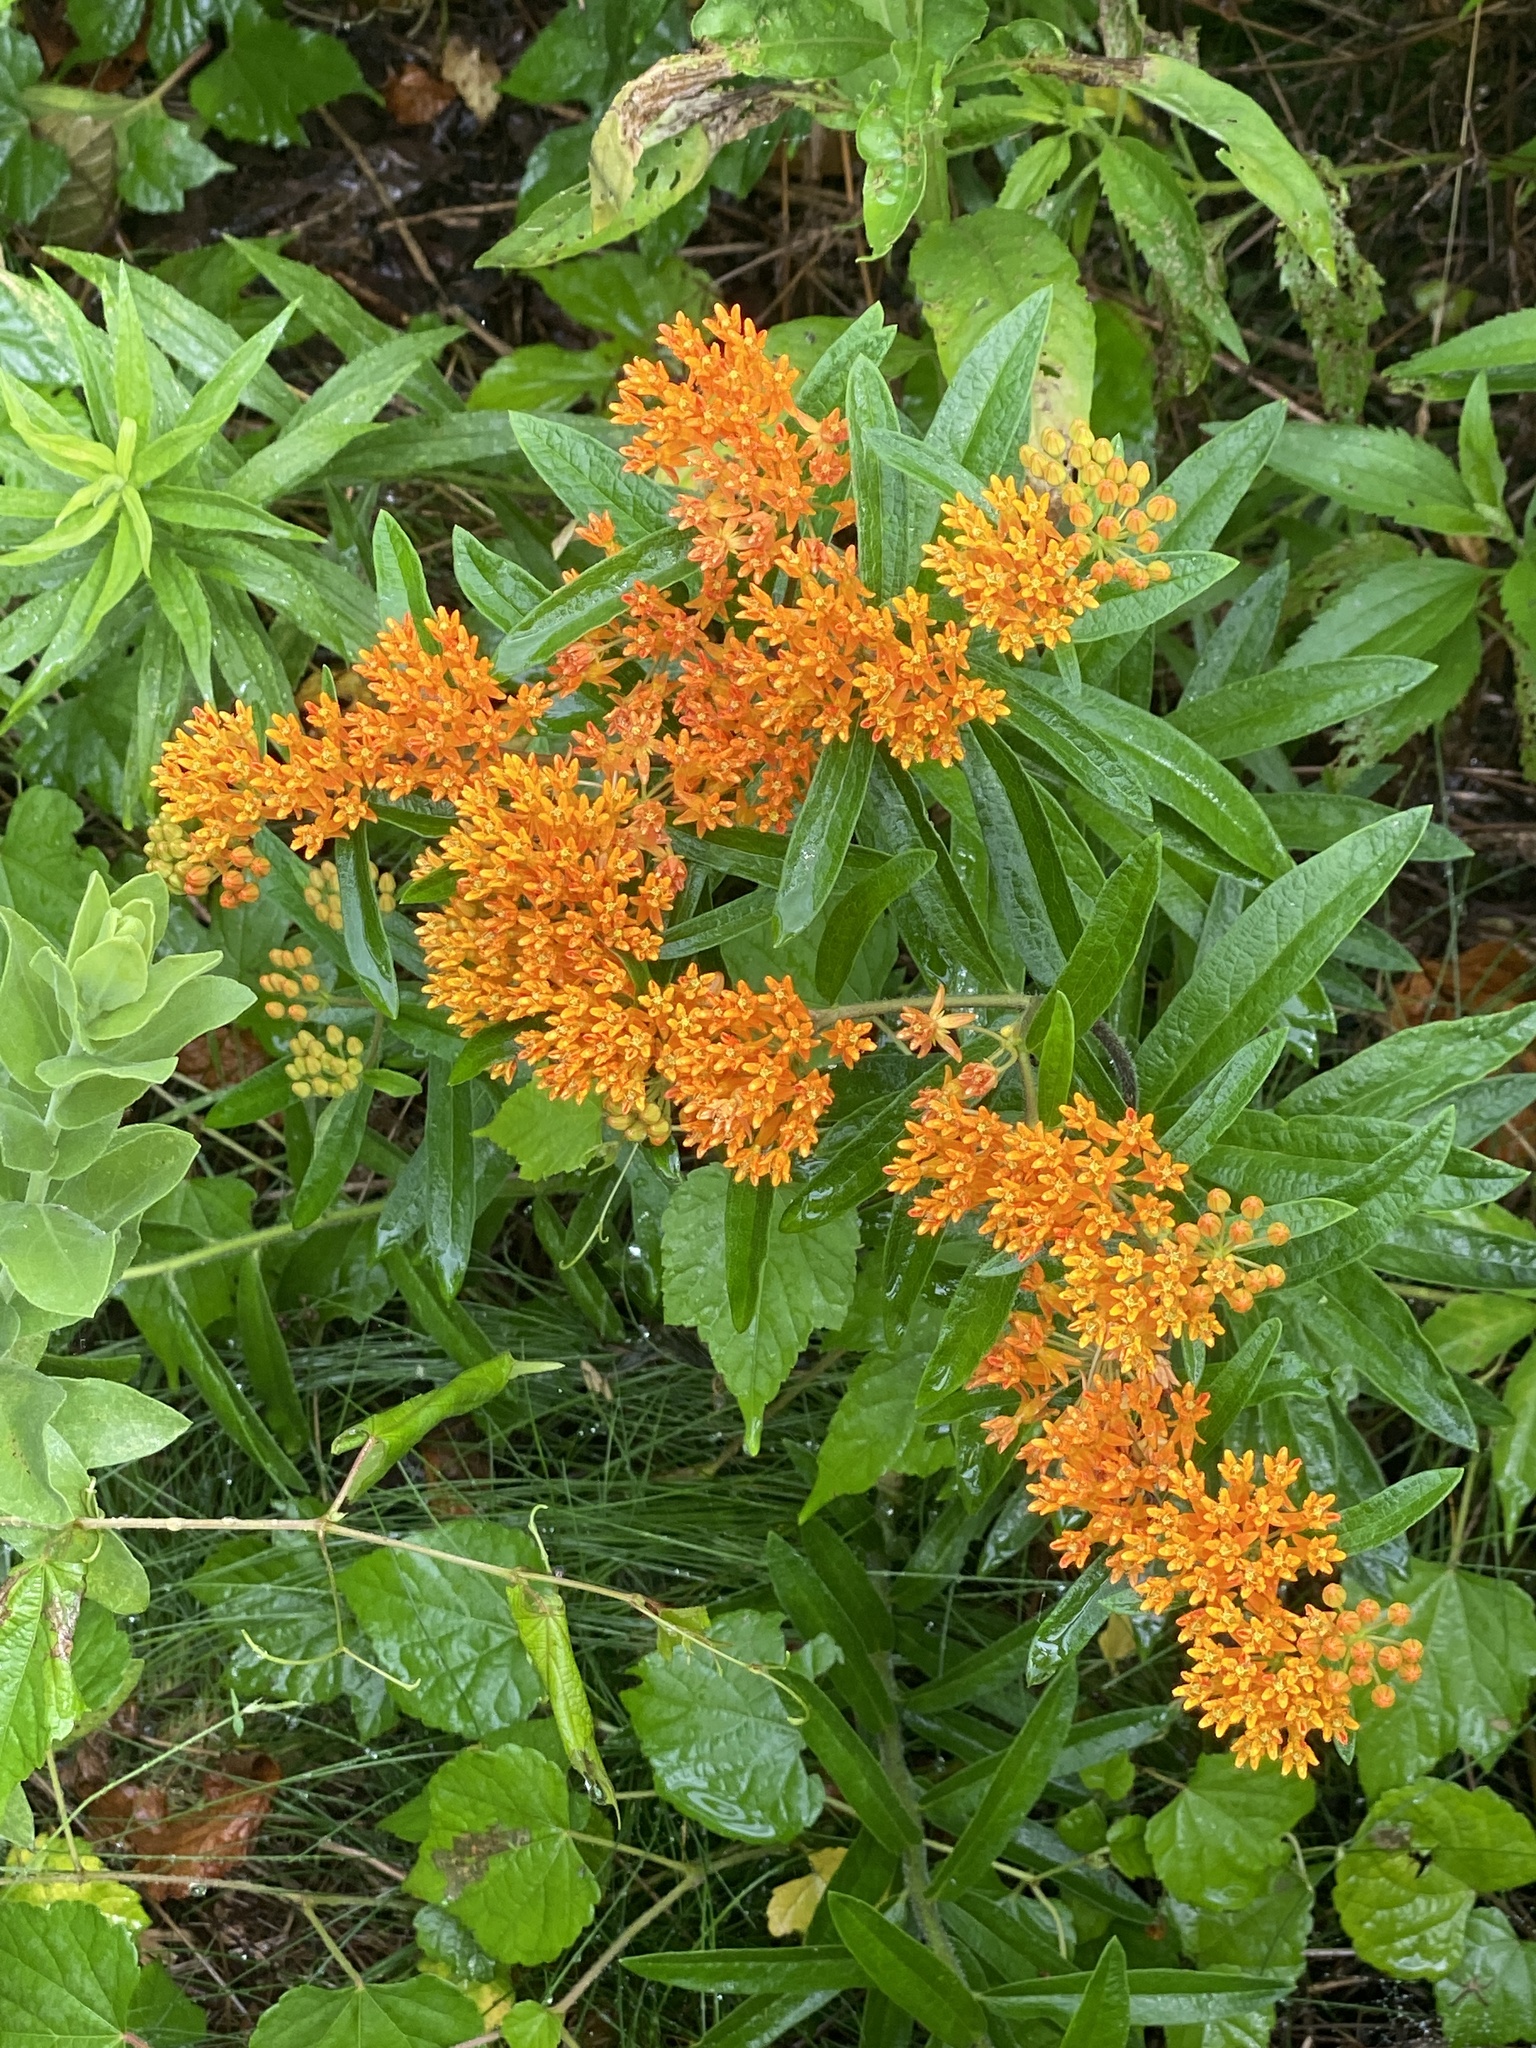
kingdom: Plantae
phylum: Tracheophyta
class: Magnoliopsida
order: Gentianales
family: Apocynaceae
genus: Asclepias
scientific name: Asclepias tuberosa
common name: Butterfly milkweed
